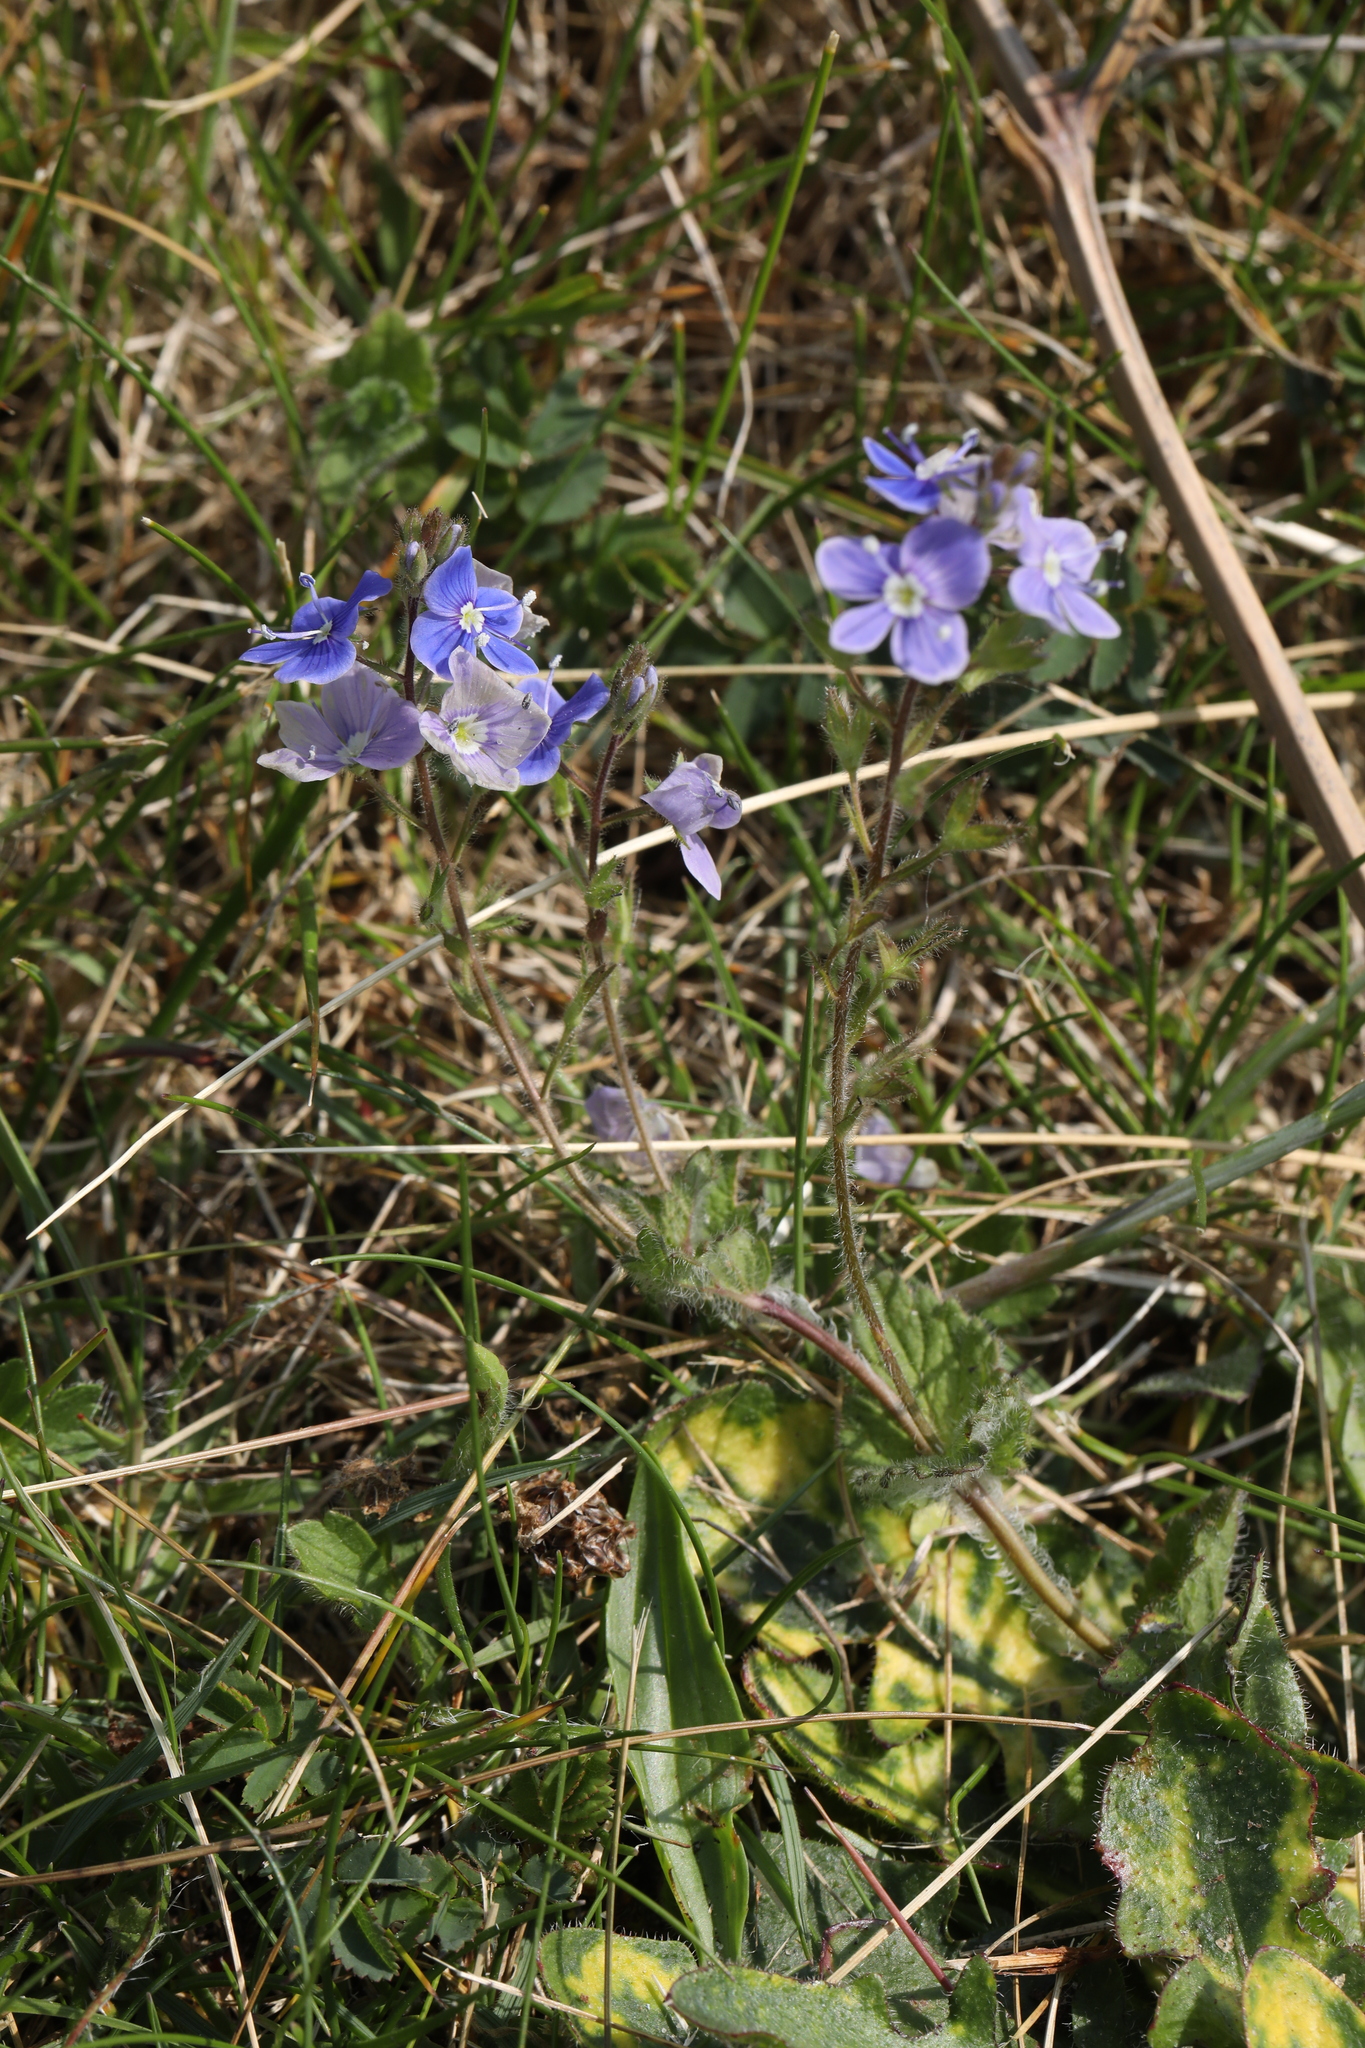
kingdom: Plantae
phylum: Tracheophyta
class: Magnoliopsida
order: Lamiales
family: Plantaginaceae
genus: Veronica
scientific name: Veronica chamaedrys
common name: Germander speedwell
